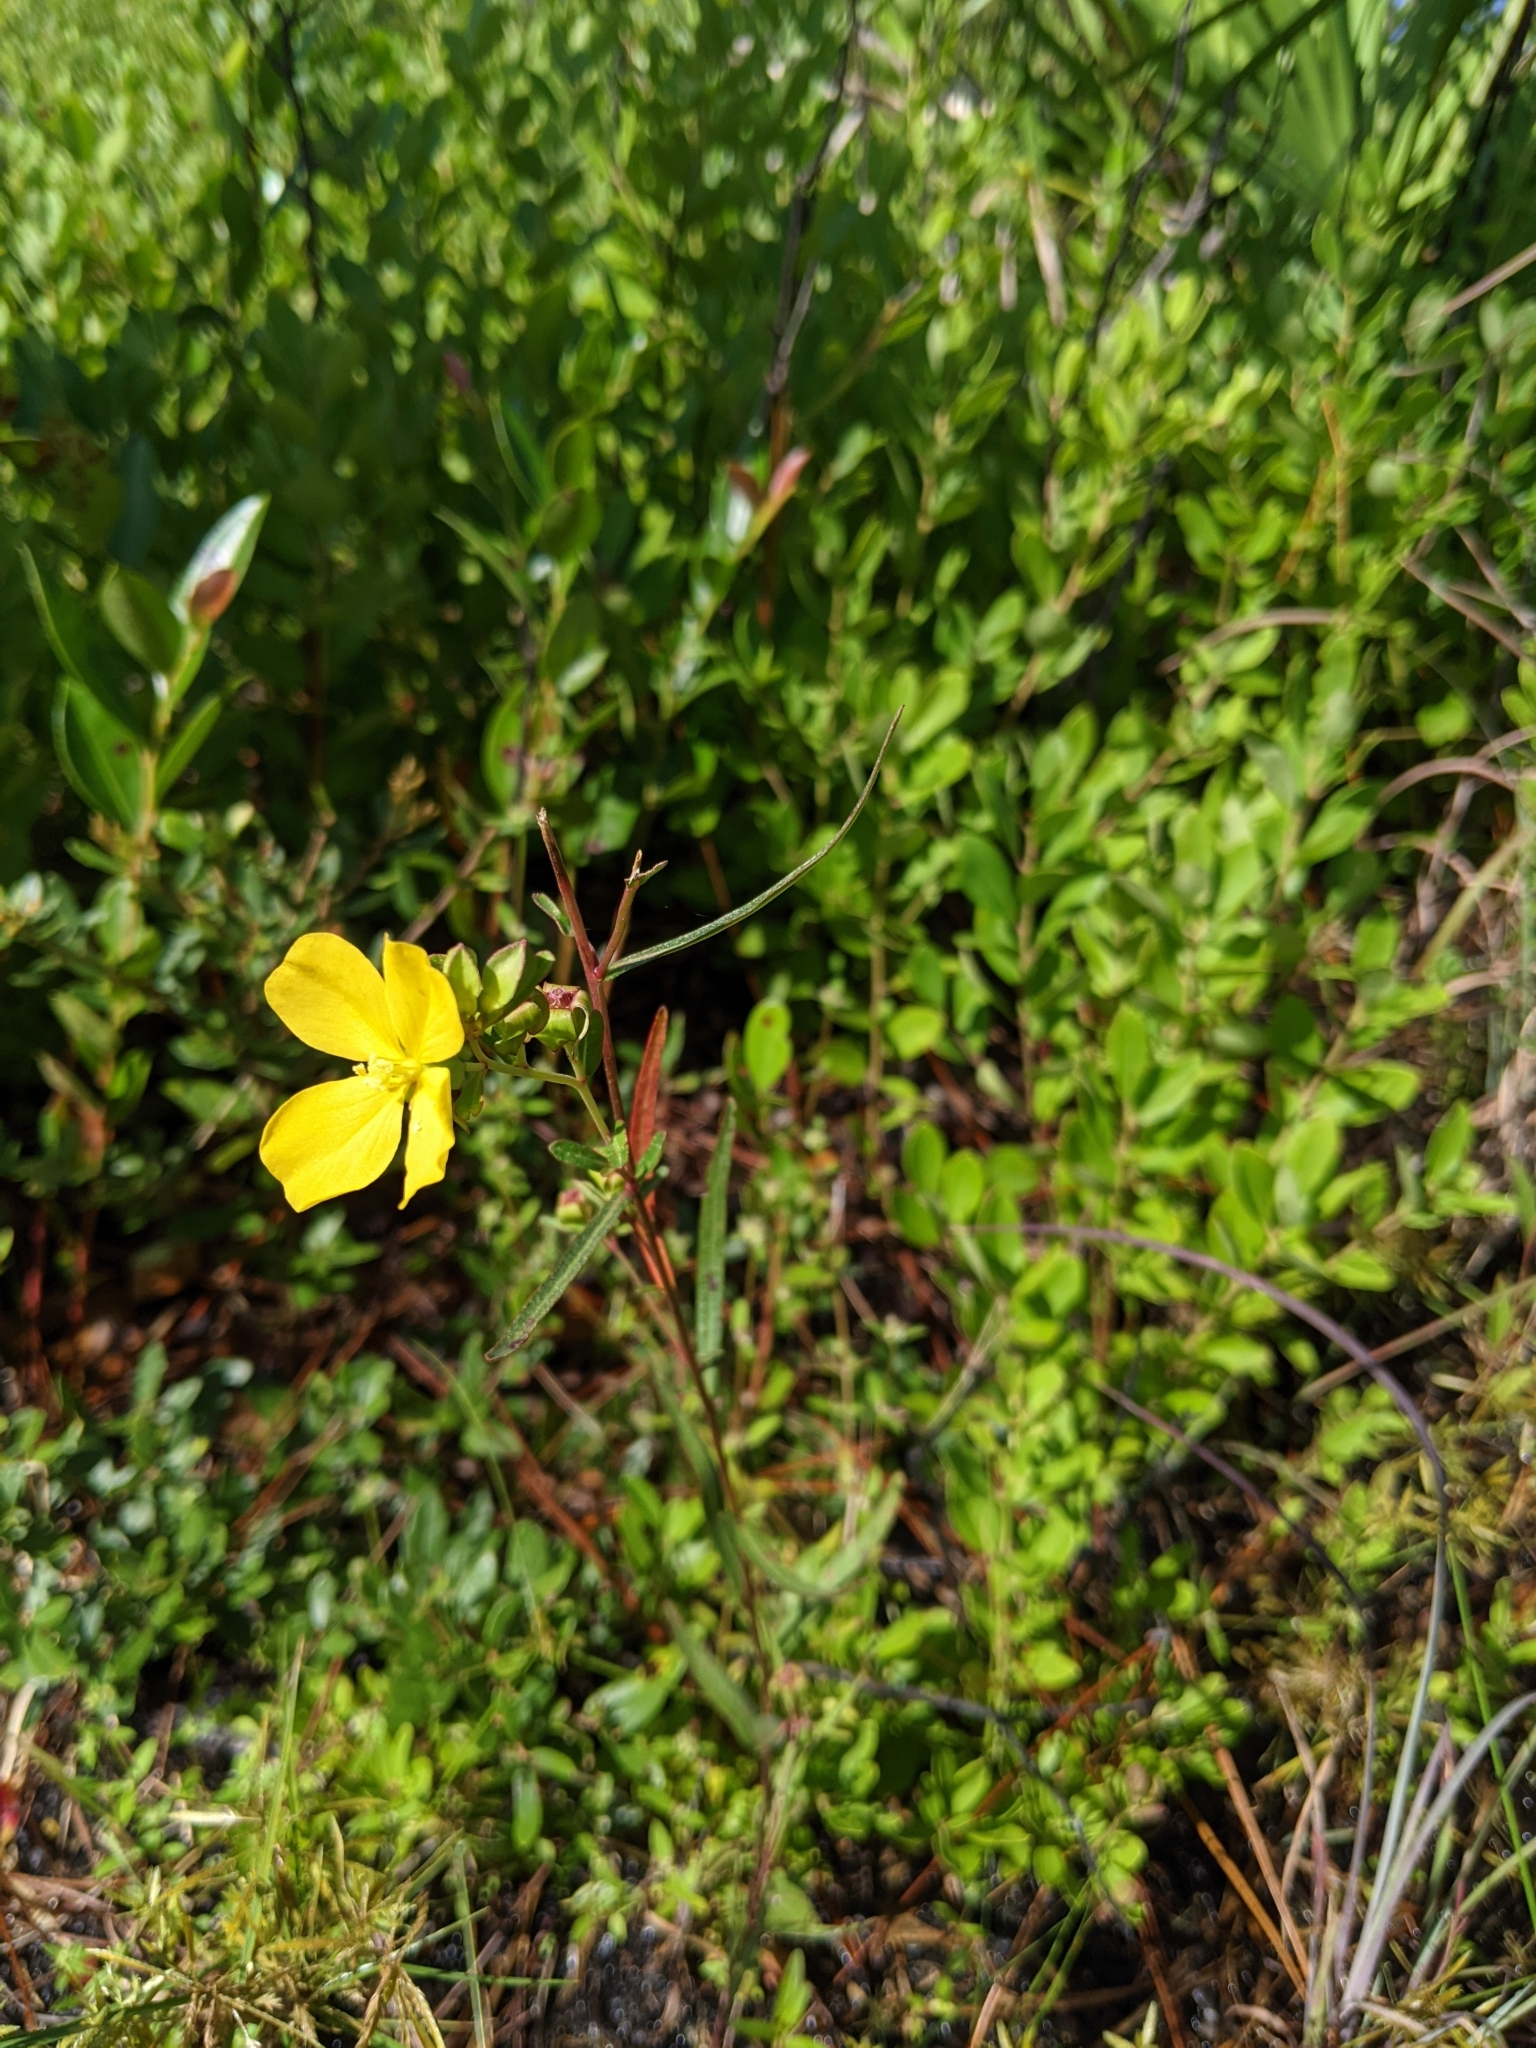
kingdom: Plantae
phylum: Tracheophyta
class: Magnoliopsida
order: Myrtales
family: Onagraceae
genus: Ludwigia
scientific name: Ludwigia linearis
